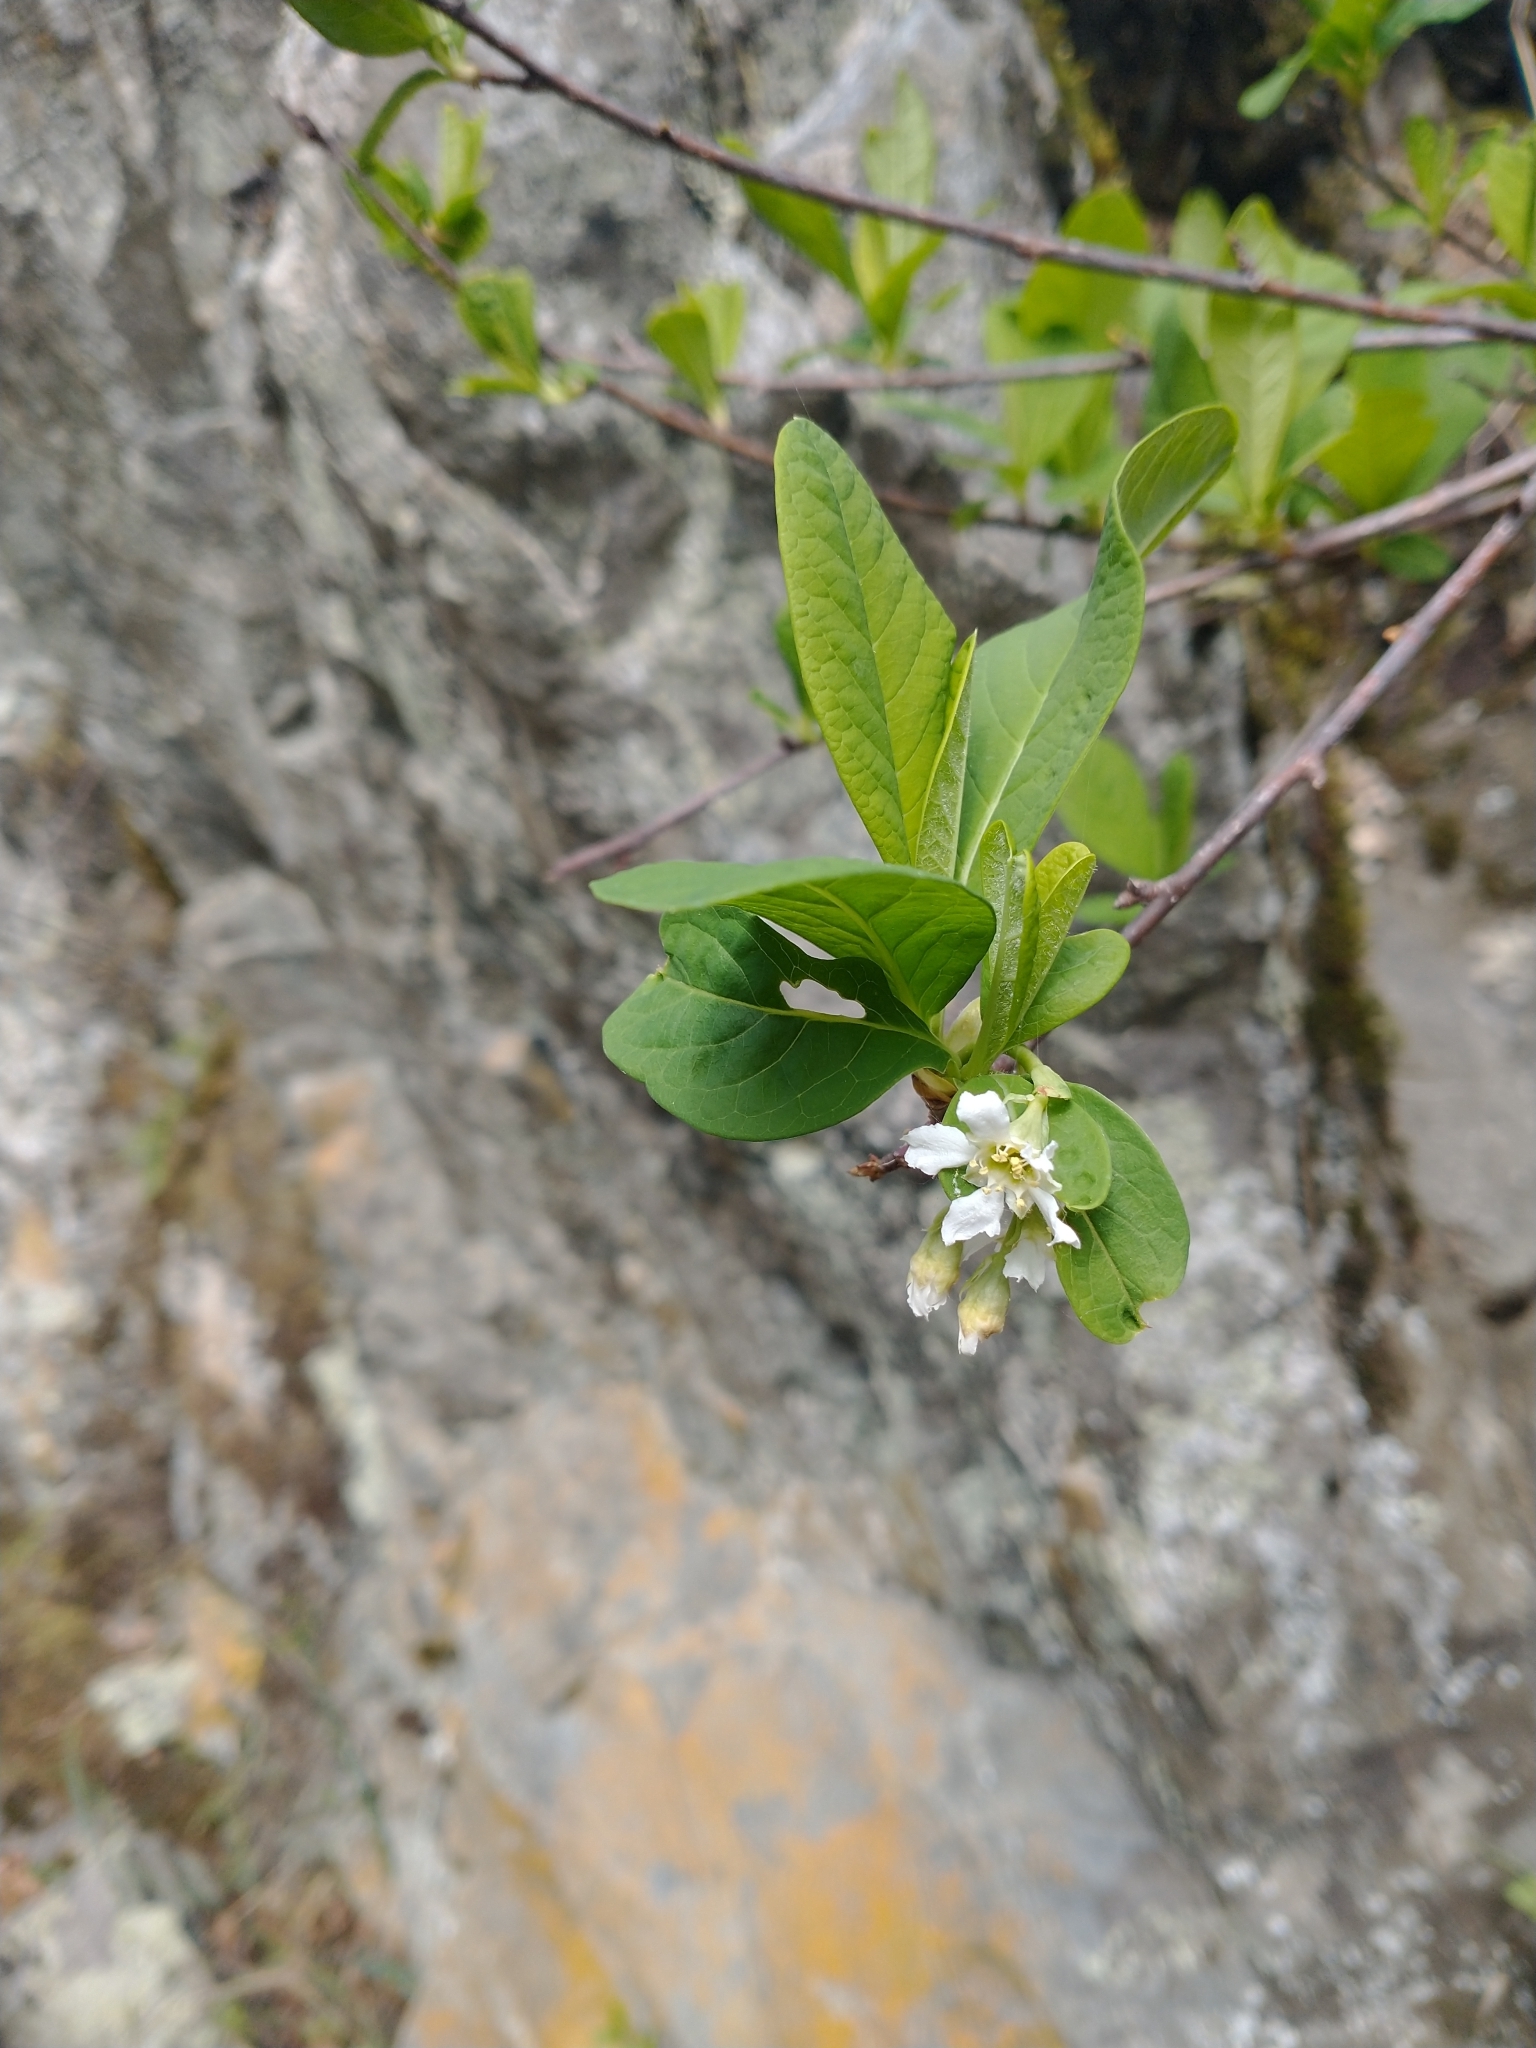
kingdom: Plantae
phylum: Tracheophyta
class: Magnoliopsida
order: Rosales
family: Rosaceae
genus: Oemleria
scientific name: Oemleria cerasiformis
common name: Osoberry
